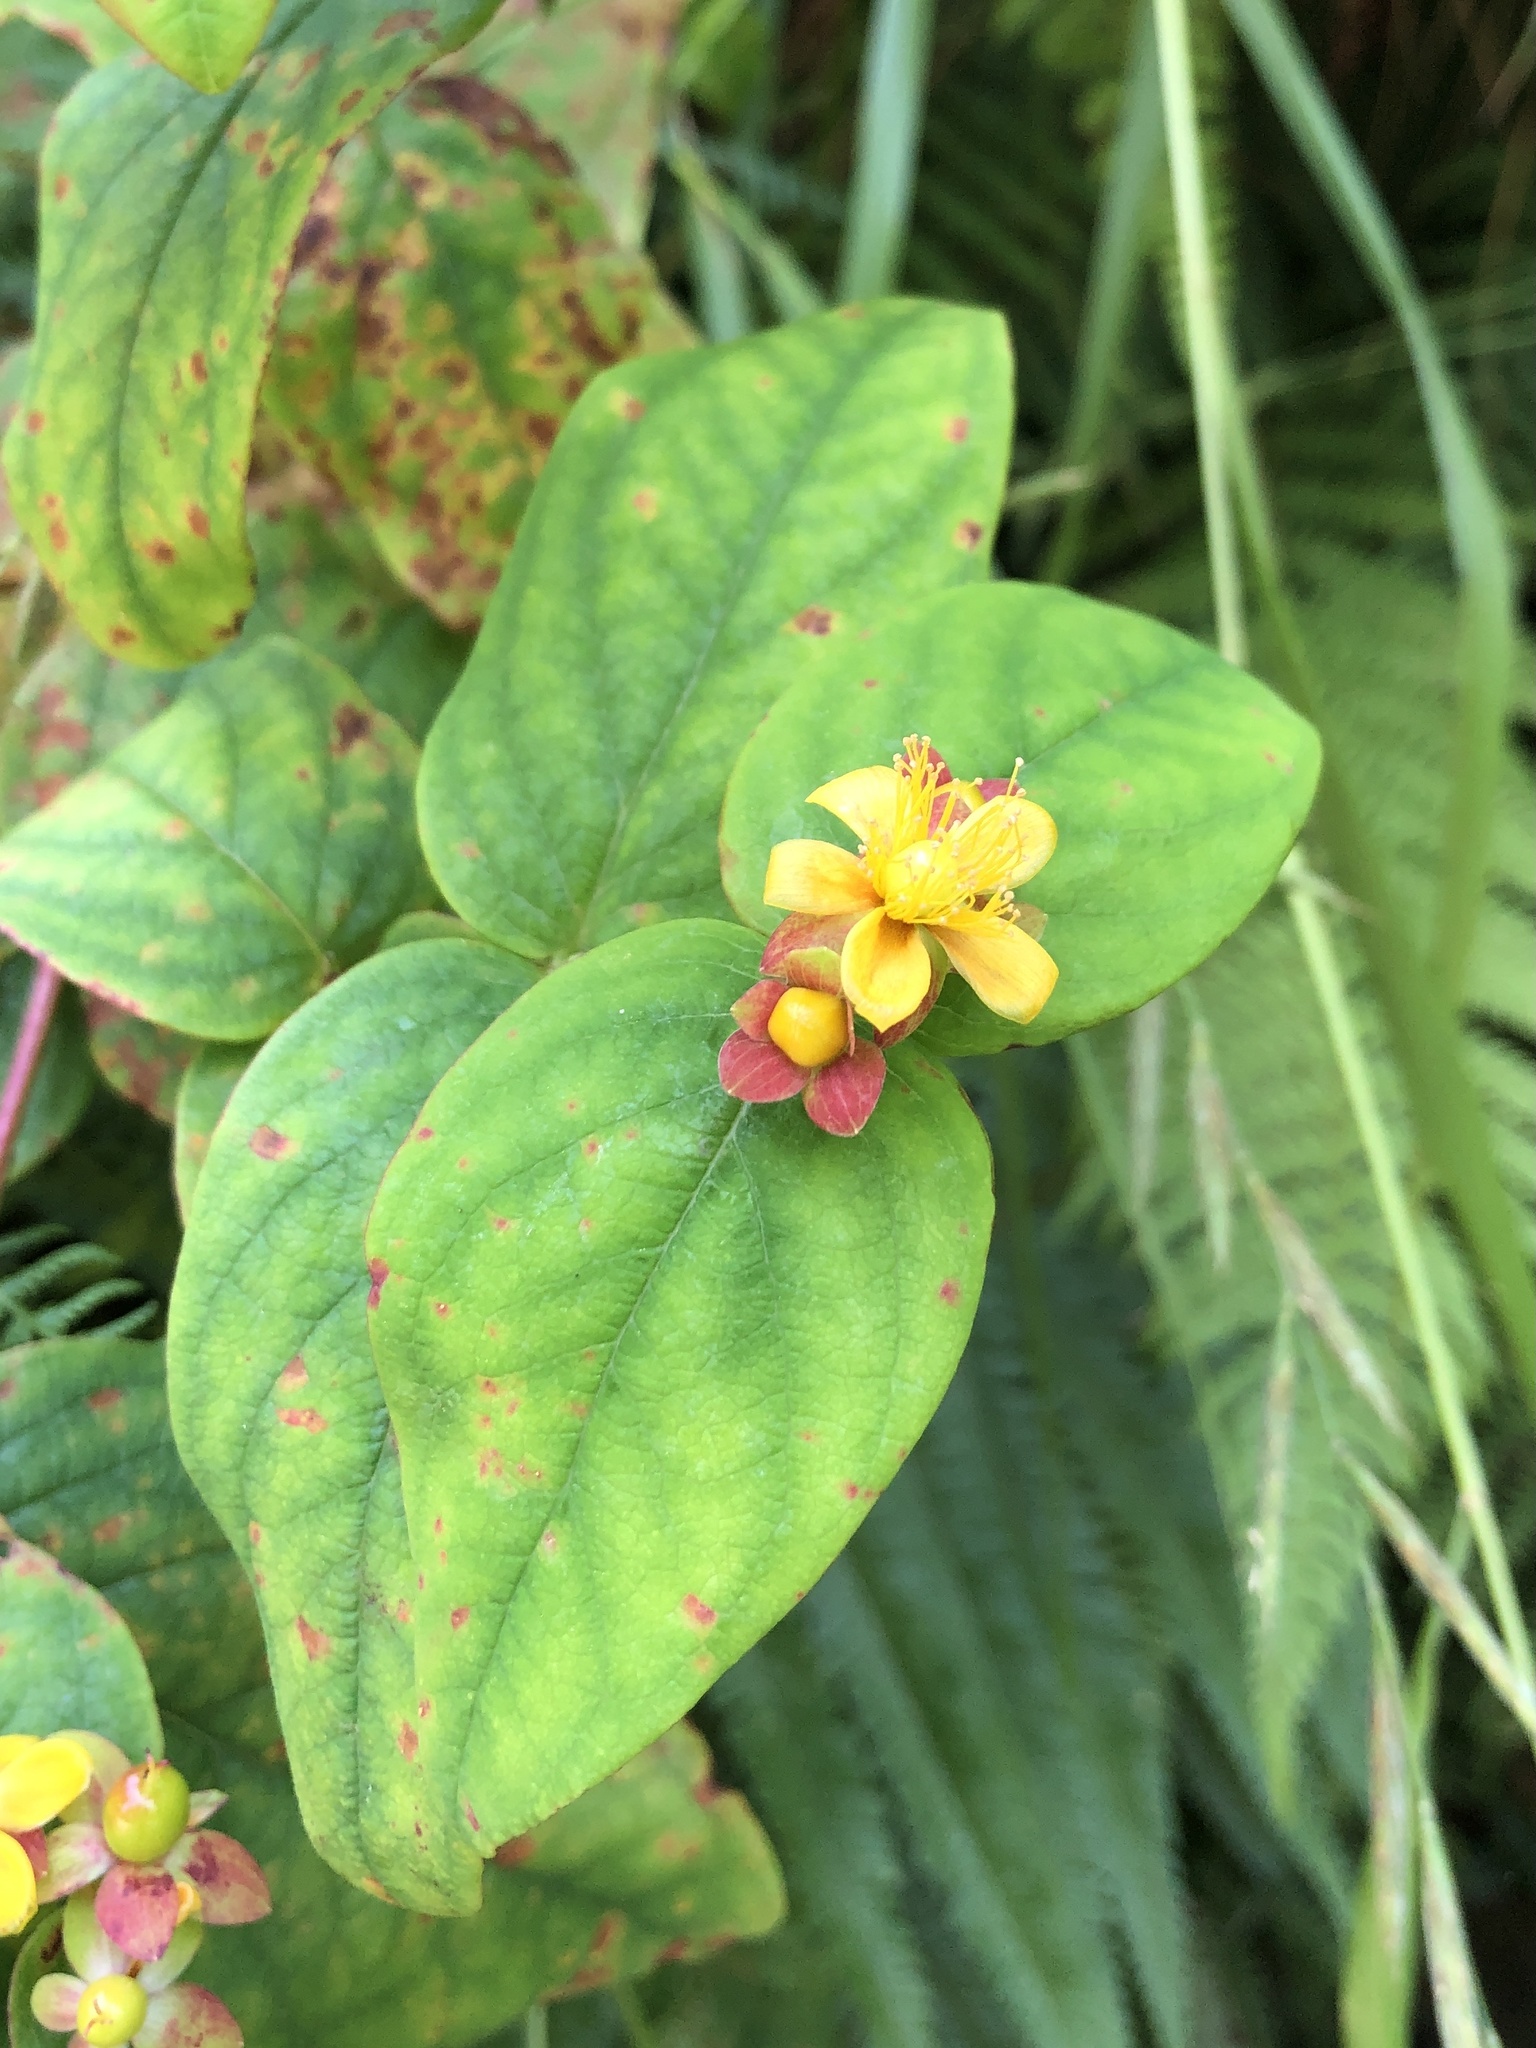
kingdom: Plantae
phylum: Tracheophyta
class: Magnoliopsida
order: Malpighiales
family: Hypericaceae
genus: Hypericum
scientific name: Hypericum androsaemum
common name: Sweet-amber
